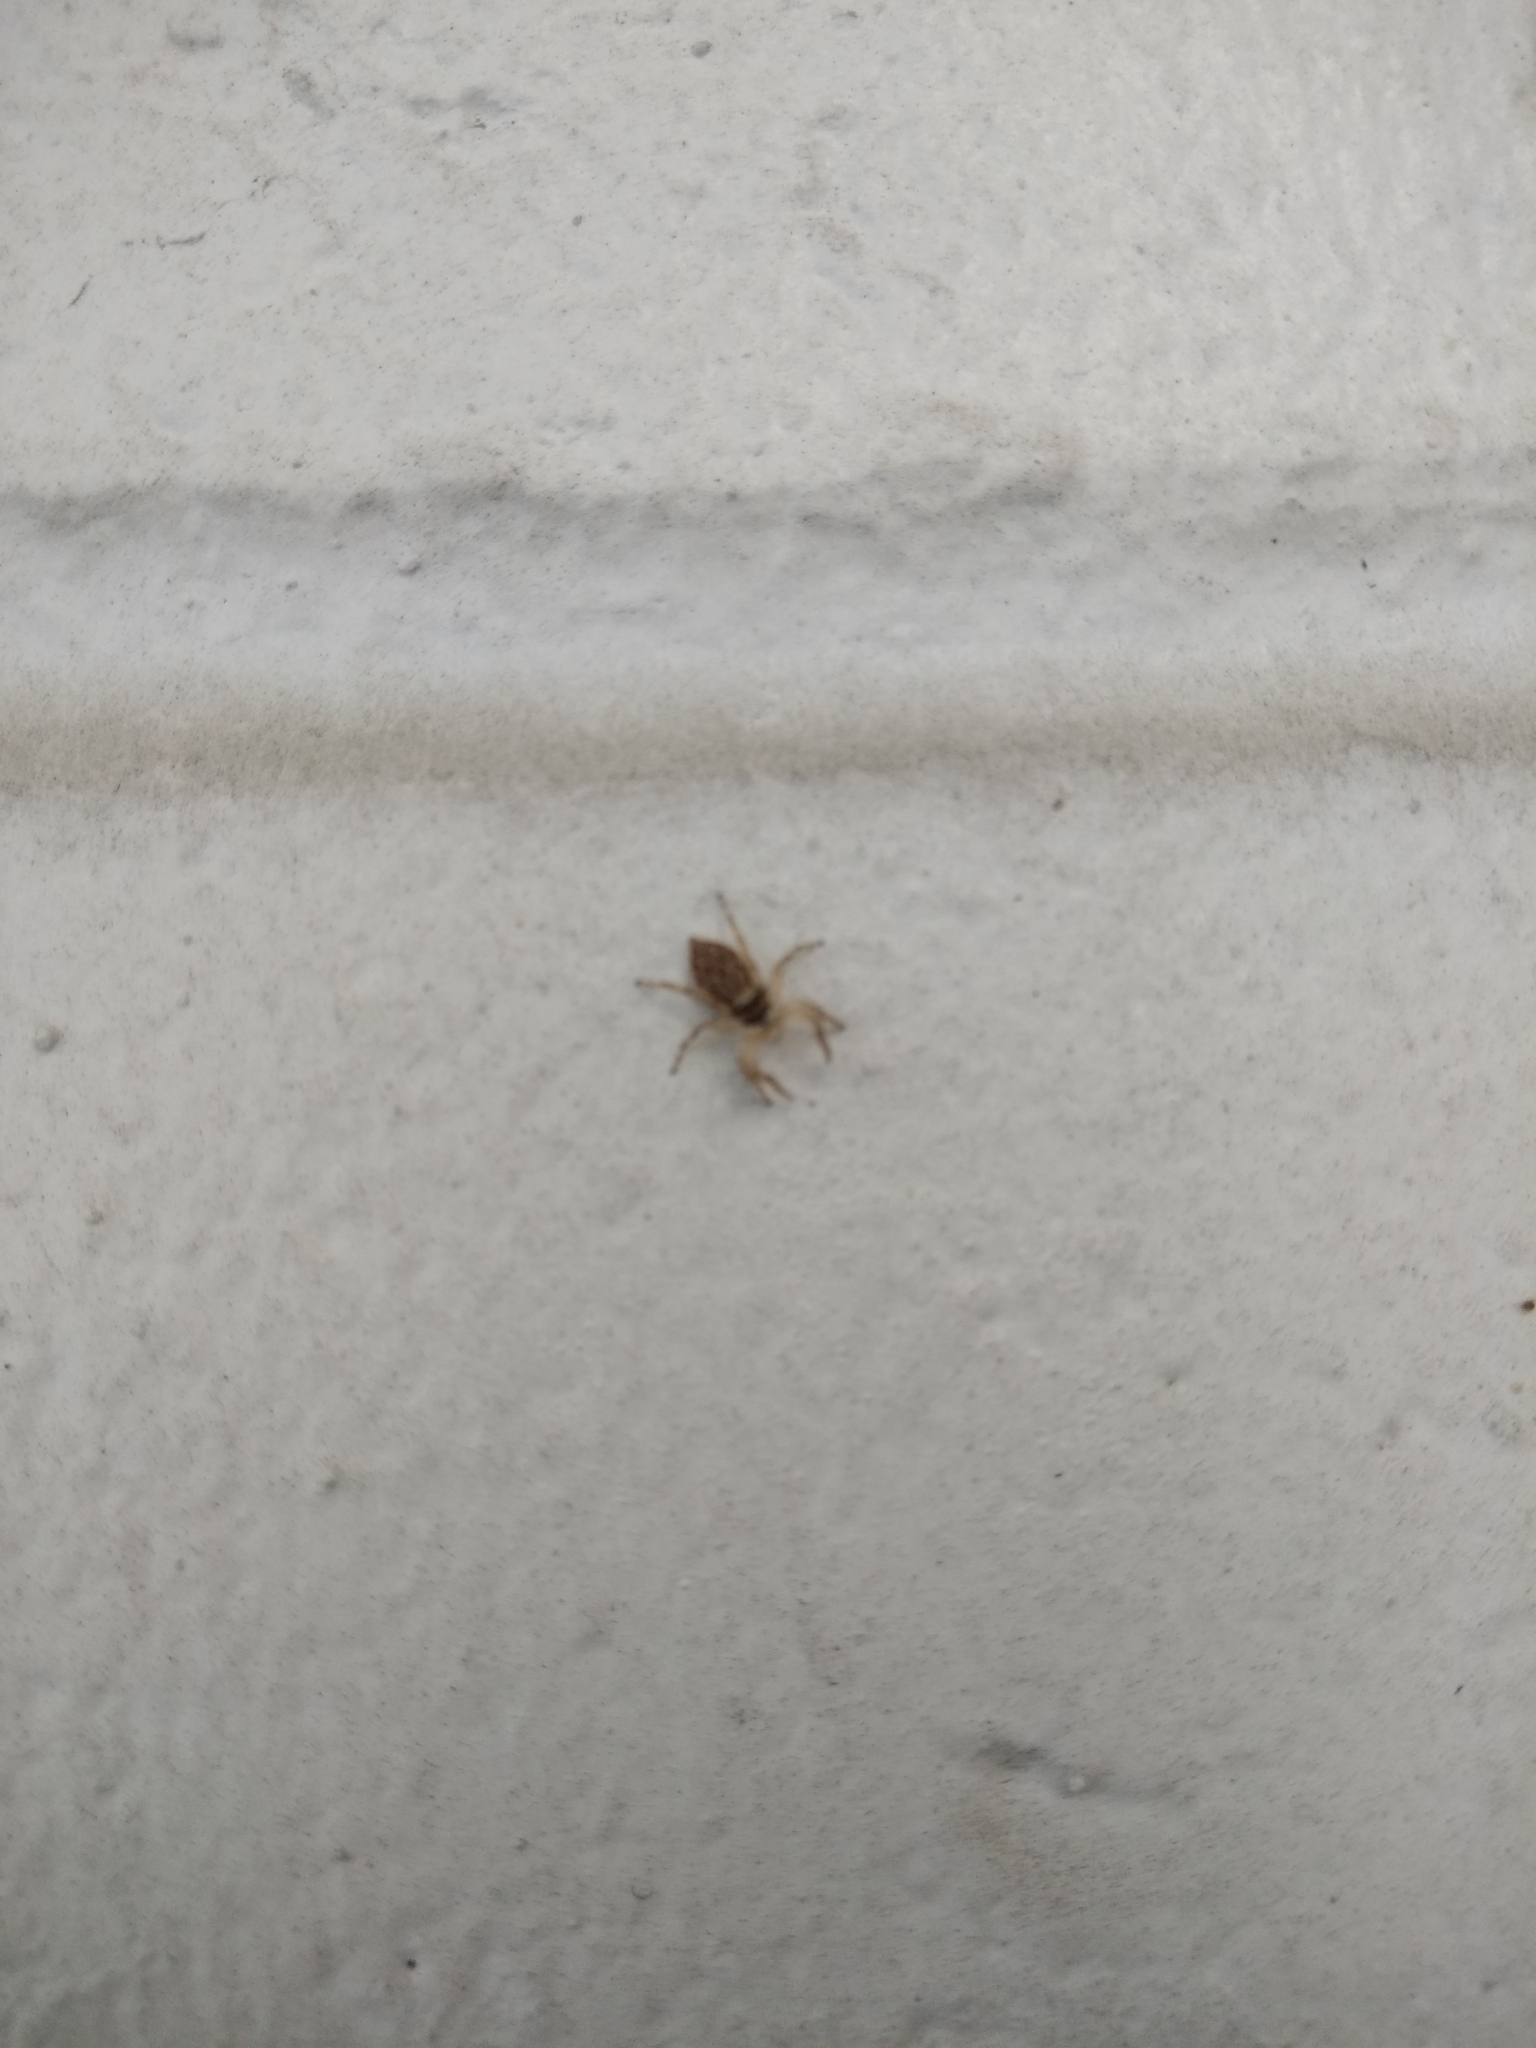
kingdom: Animalia
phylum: Arthropoda
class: Arachnida
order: Araneae
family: Salticidae
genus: Menemerus
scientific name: Menemerus bivittatus
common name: Gray wall jumper
